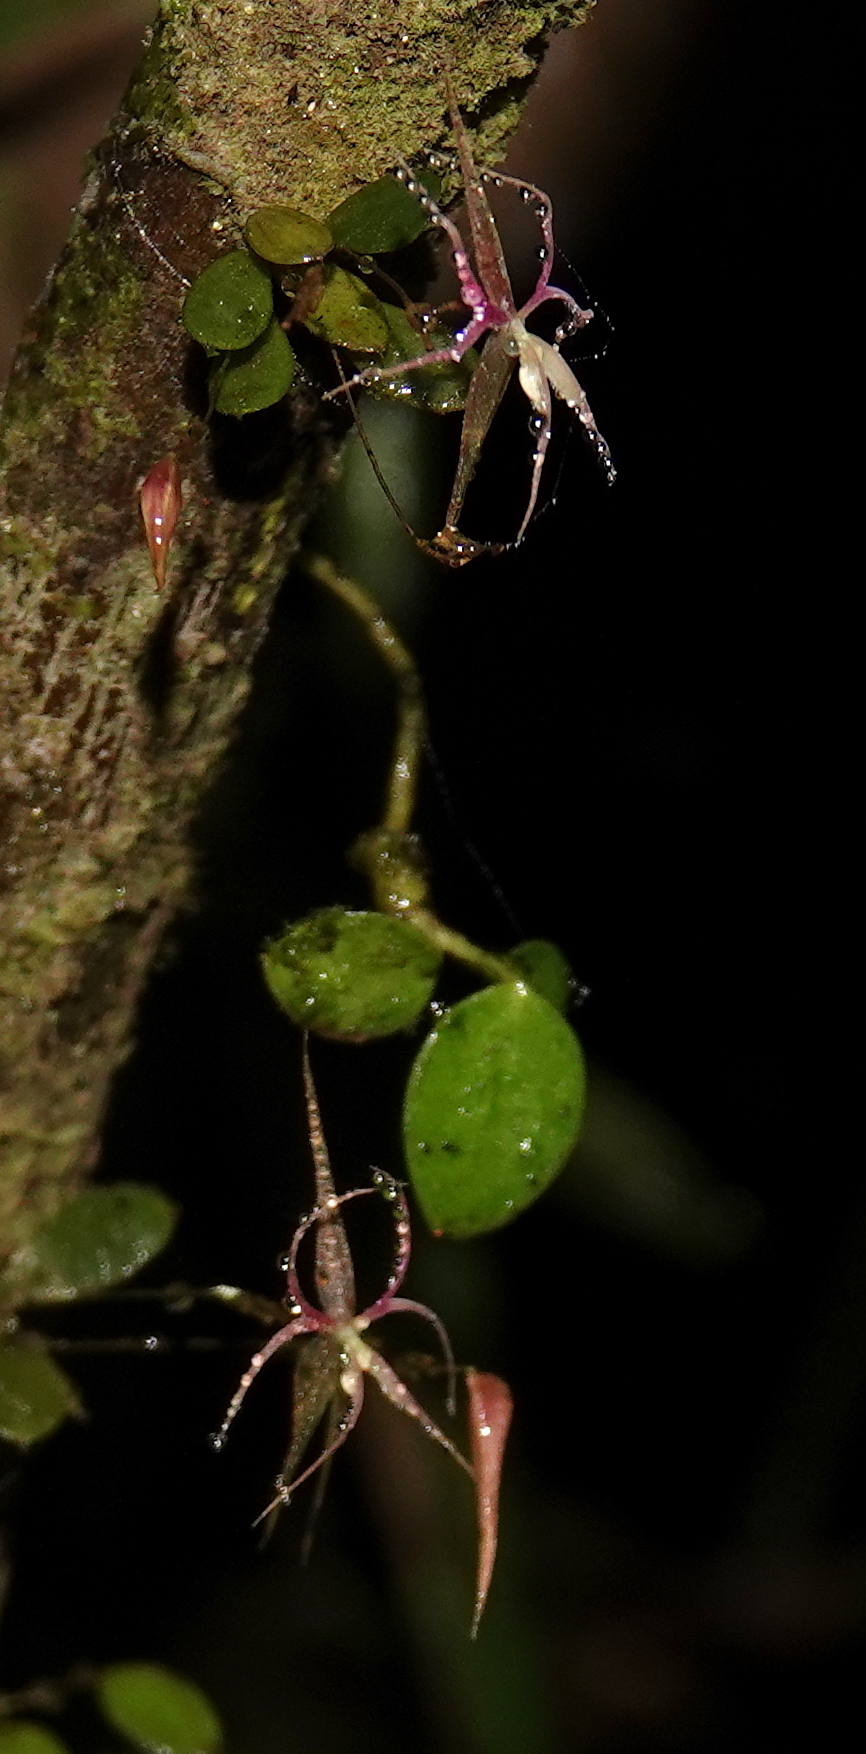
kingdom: Plantae
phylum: Tracheophyta
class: Liliopsida
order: Asparagales
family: Orchidaceae
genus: Lepanthes
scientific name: Lepanthes calimae
